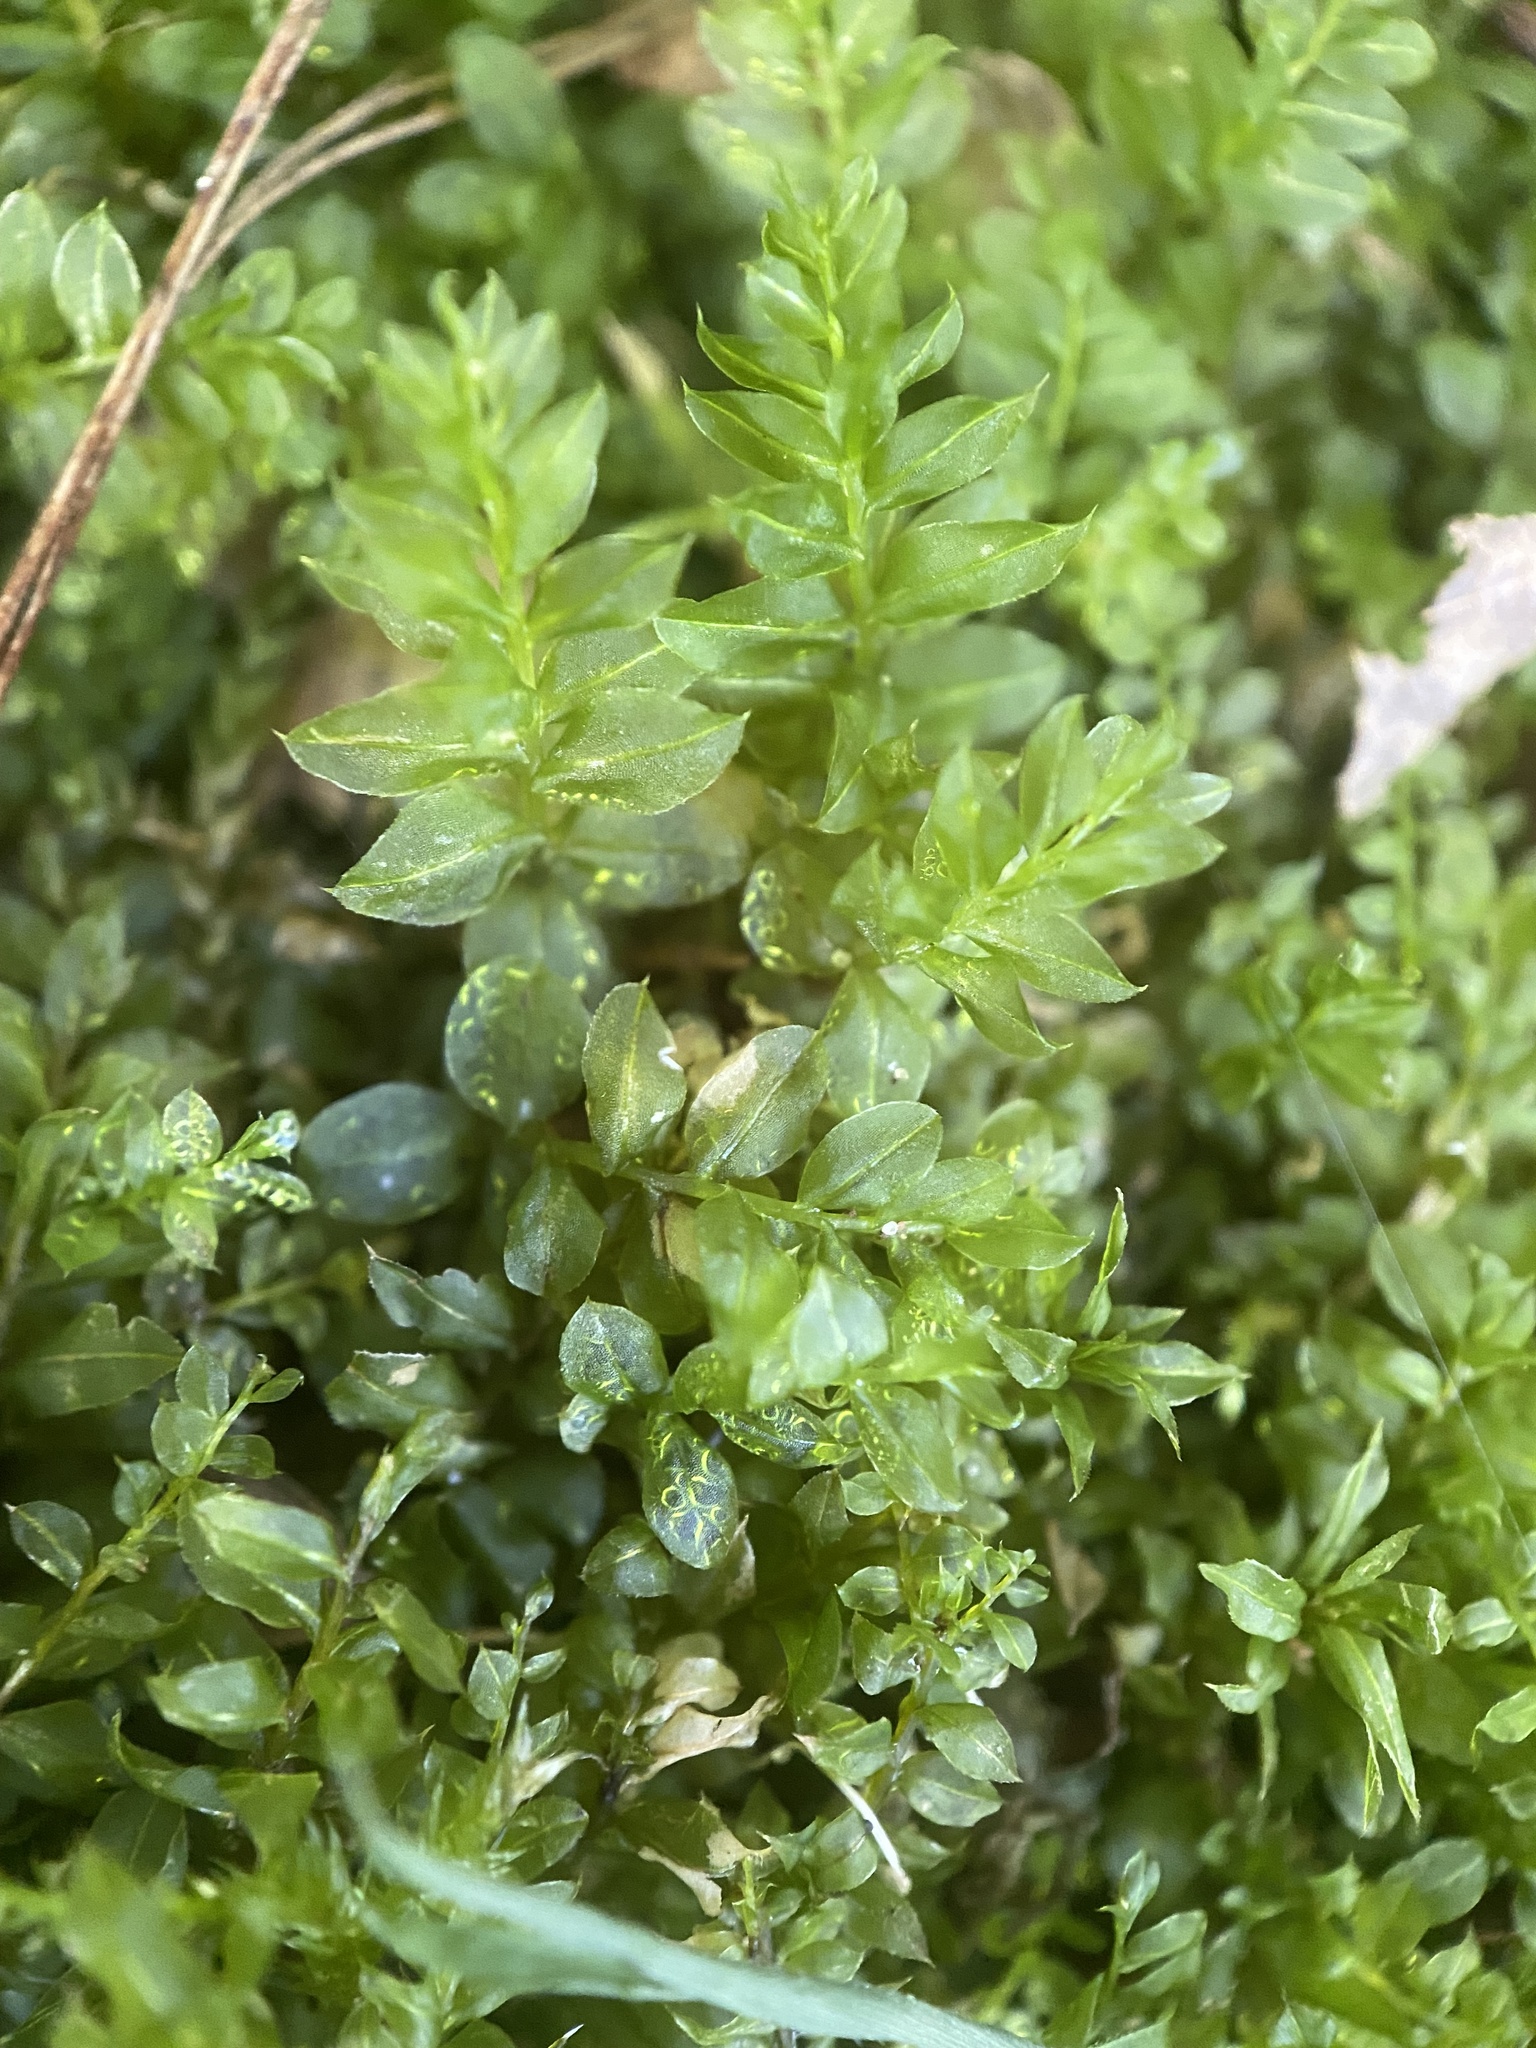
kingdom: Plantae
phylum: Bryophyta
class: Bryopsida
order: Bryales
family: Mniaceae
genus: Plagiomnium
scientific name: Plagiomnium cuspidatum
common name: Woodsy leafy moss
